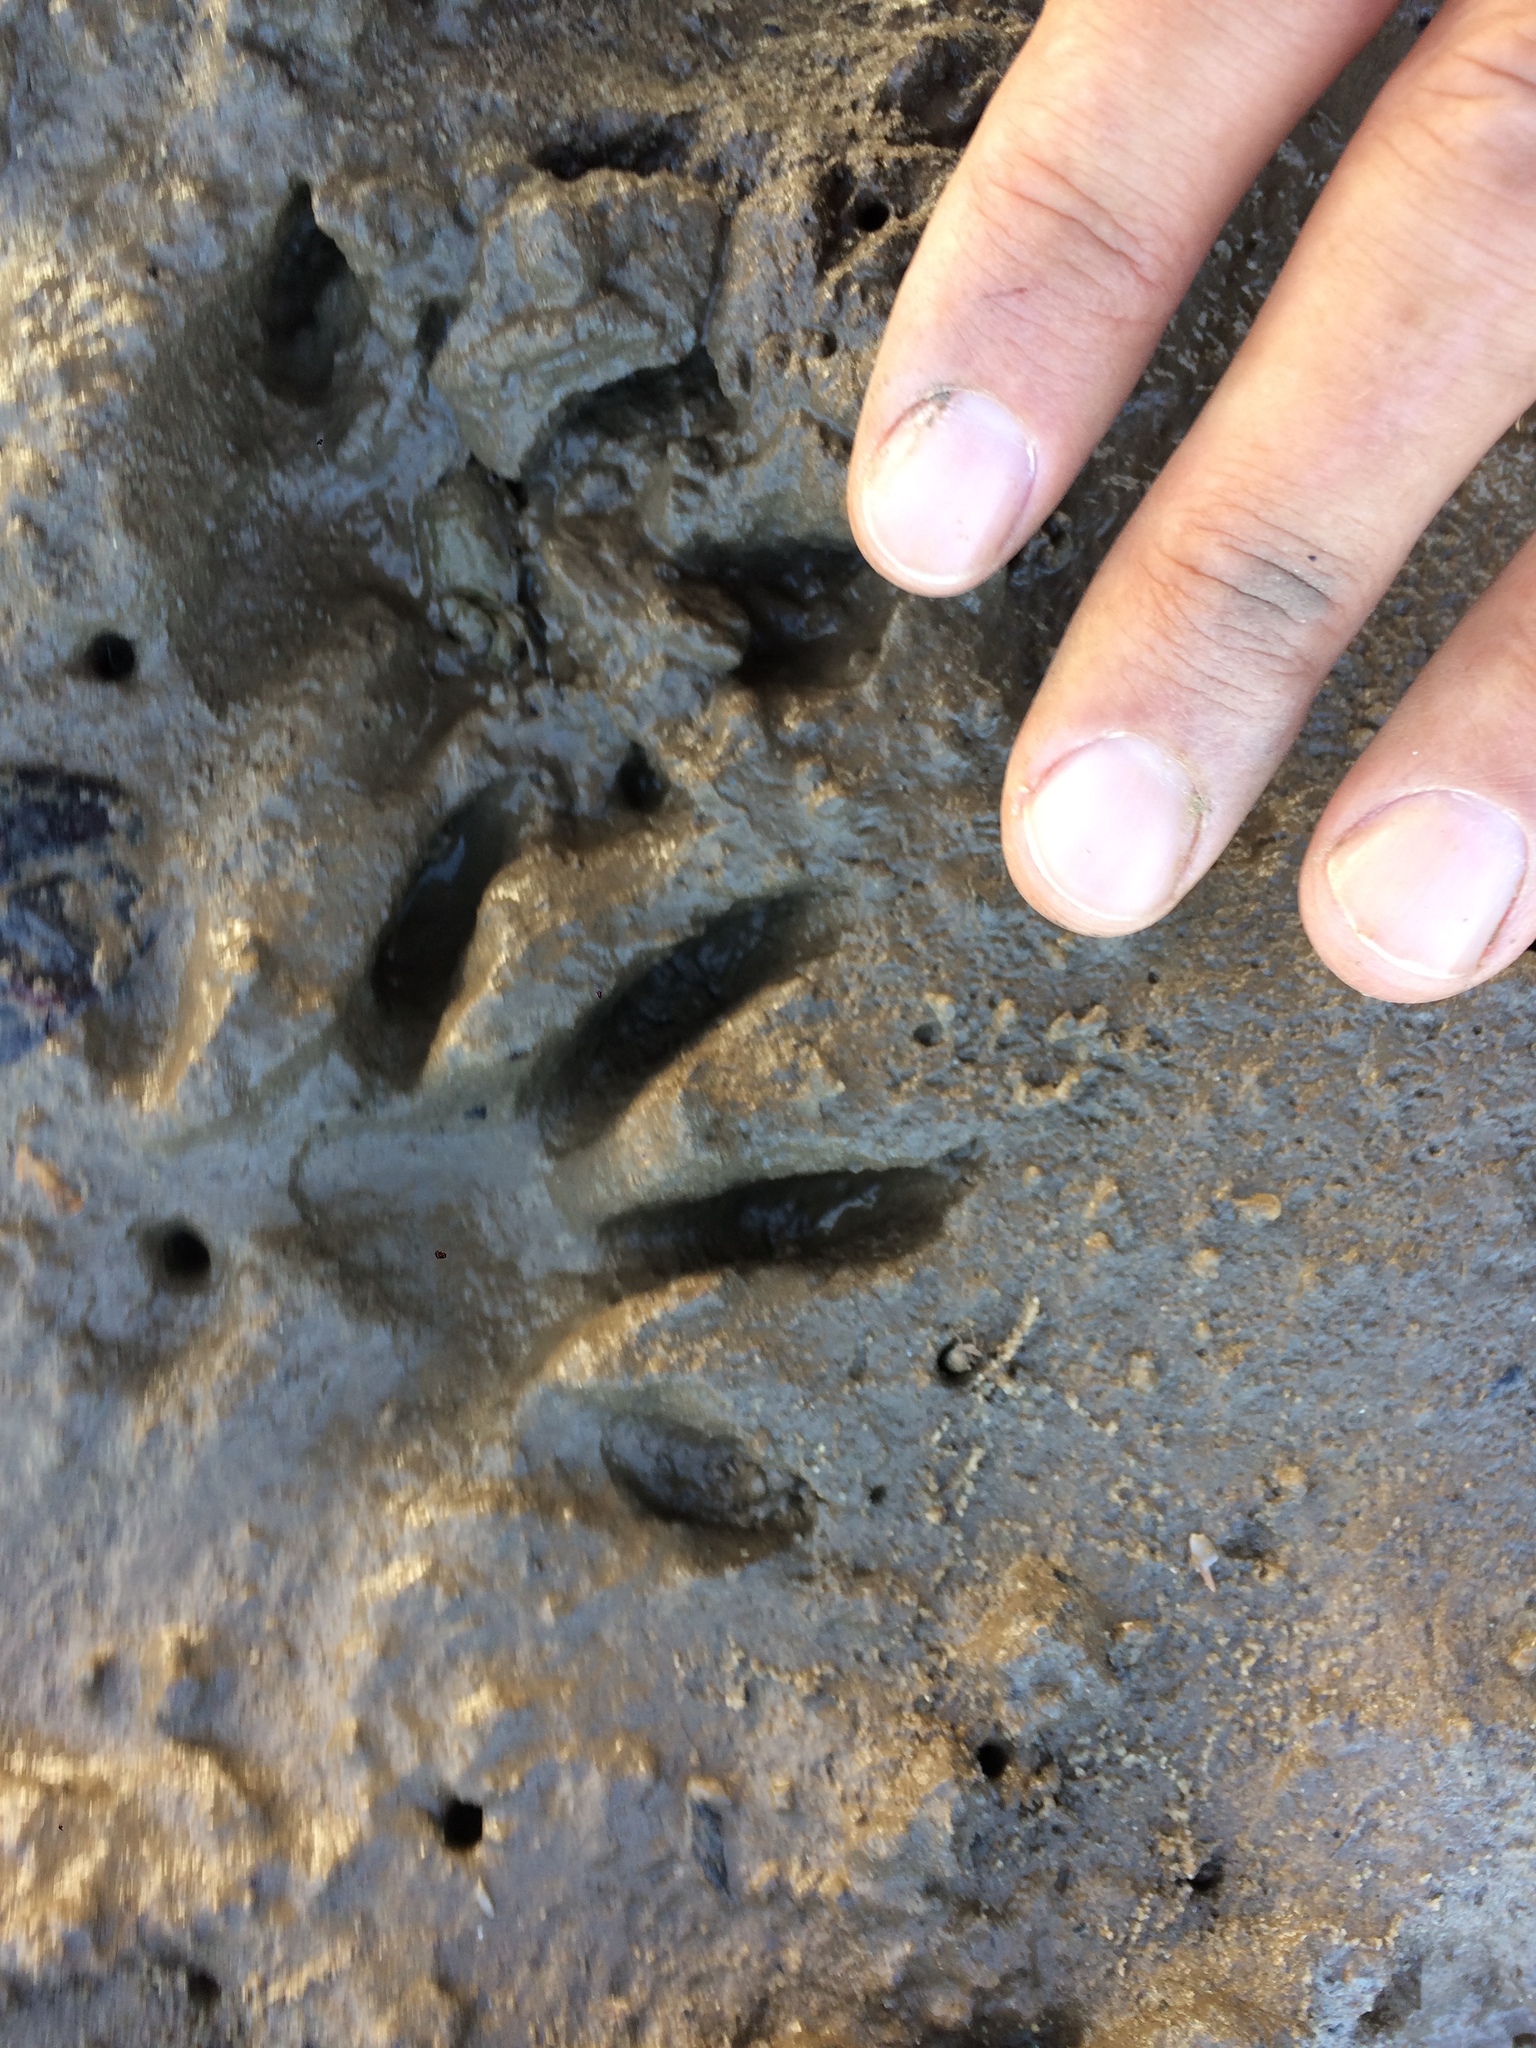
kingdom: Animalia
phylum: Chordata
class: Mammalia
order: Carnivora
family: Procyonidae
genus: Procyon
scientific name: Procyon cancrivorus
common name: Crab-eating raccoon
